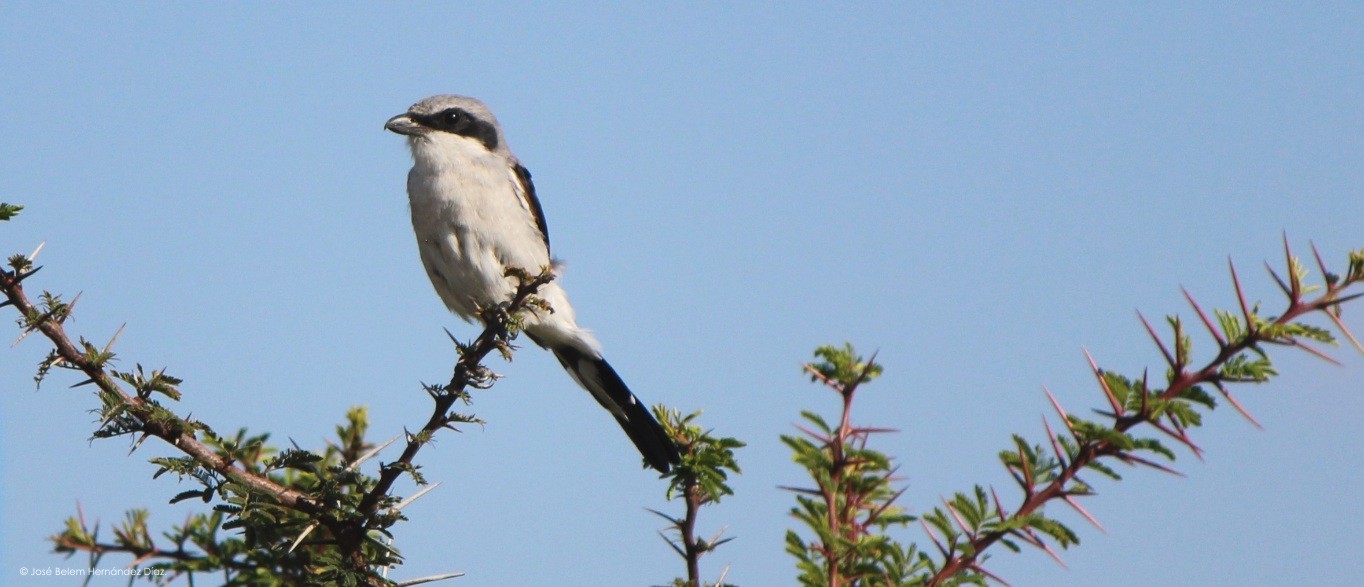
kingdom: Animalia
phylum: Chordata
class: Aves
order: Passeriformes
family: Laniidae
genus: Lanius
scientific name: Lanius ludovicianus
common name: Loggerhead shrike
